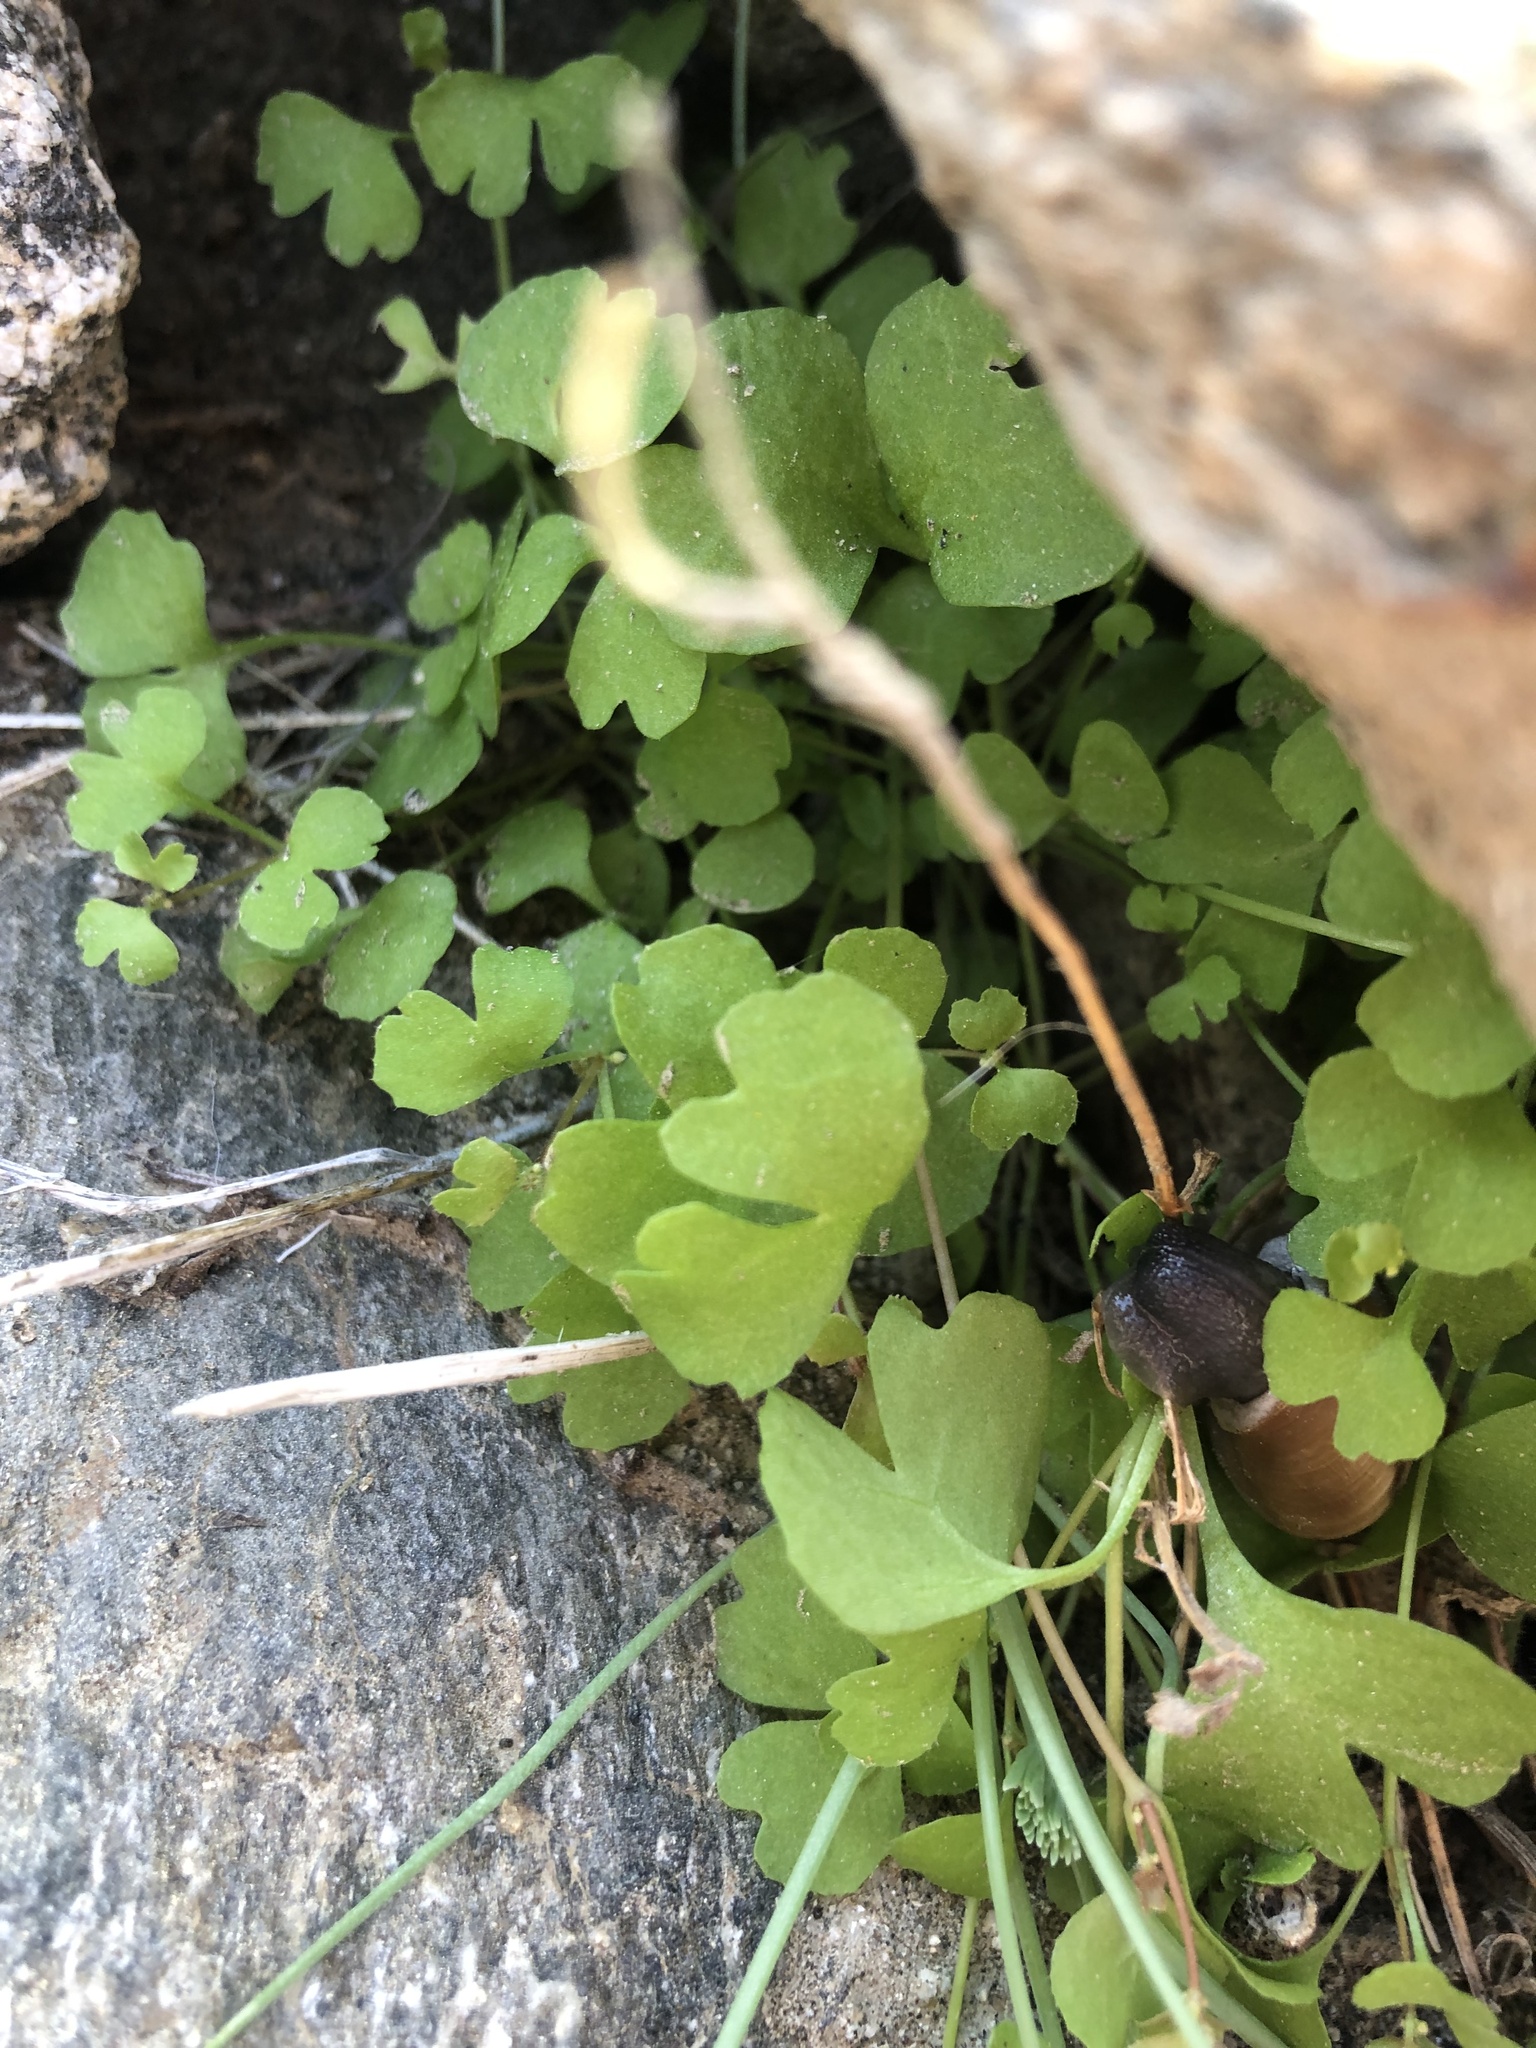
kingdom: Plantae
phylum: Tracheophyta
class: Magnoliopsida
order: Caryophyllales
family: Polygonaceae
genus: Pterostegia
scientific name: Pterostegia drymarioides
